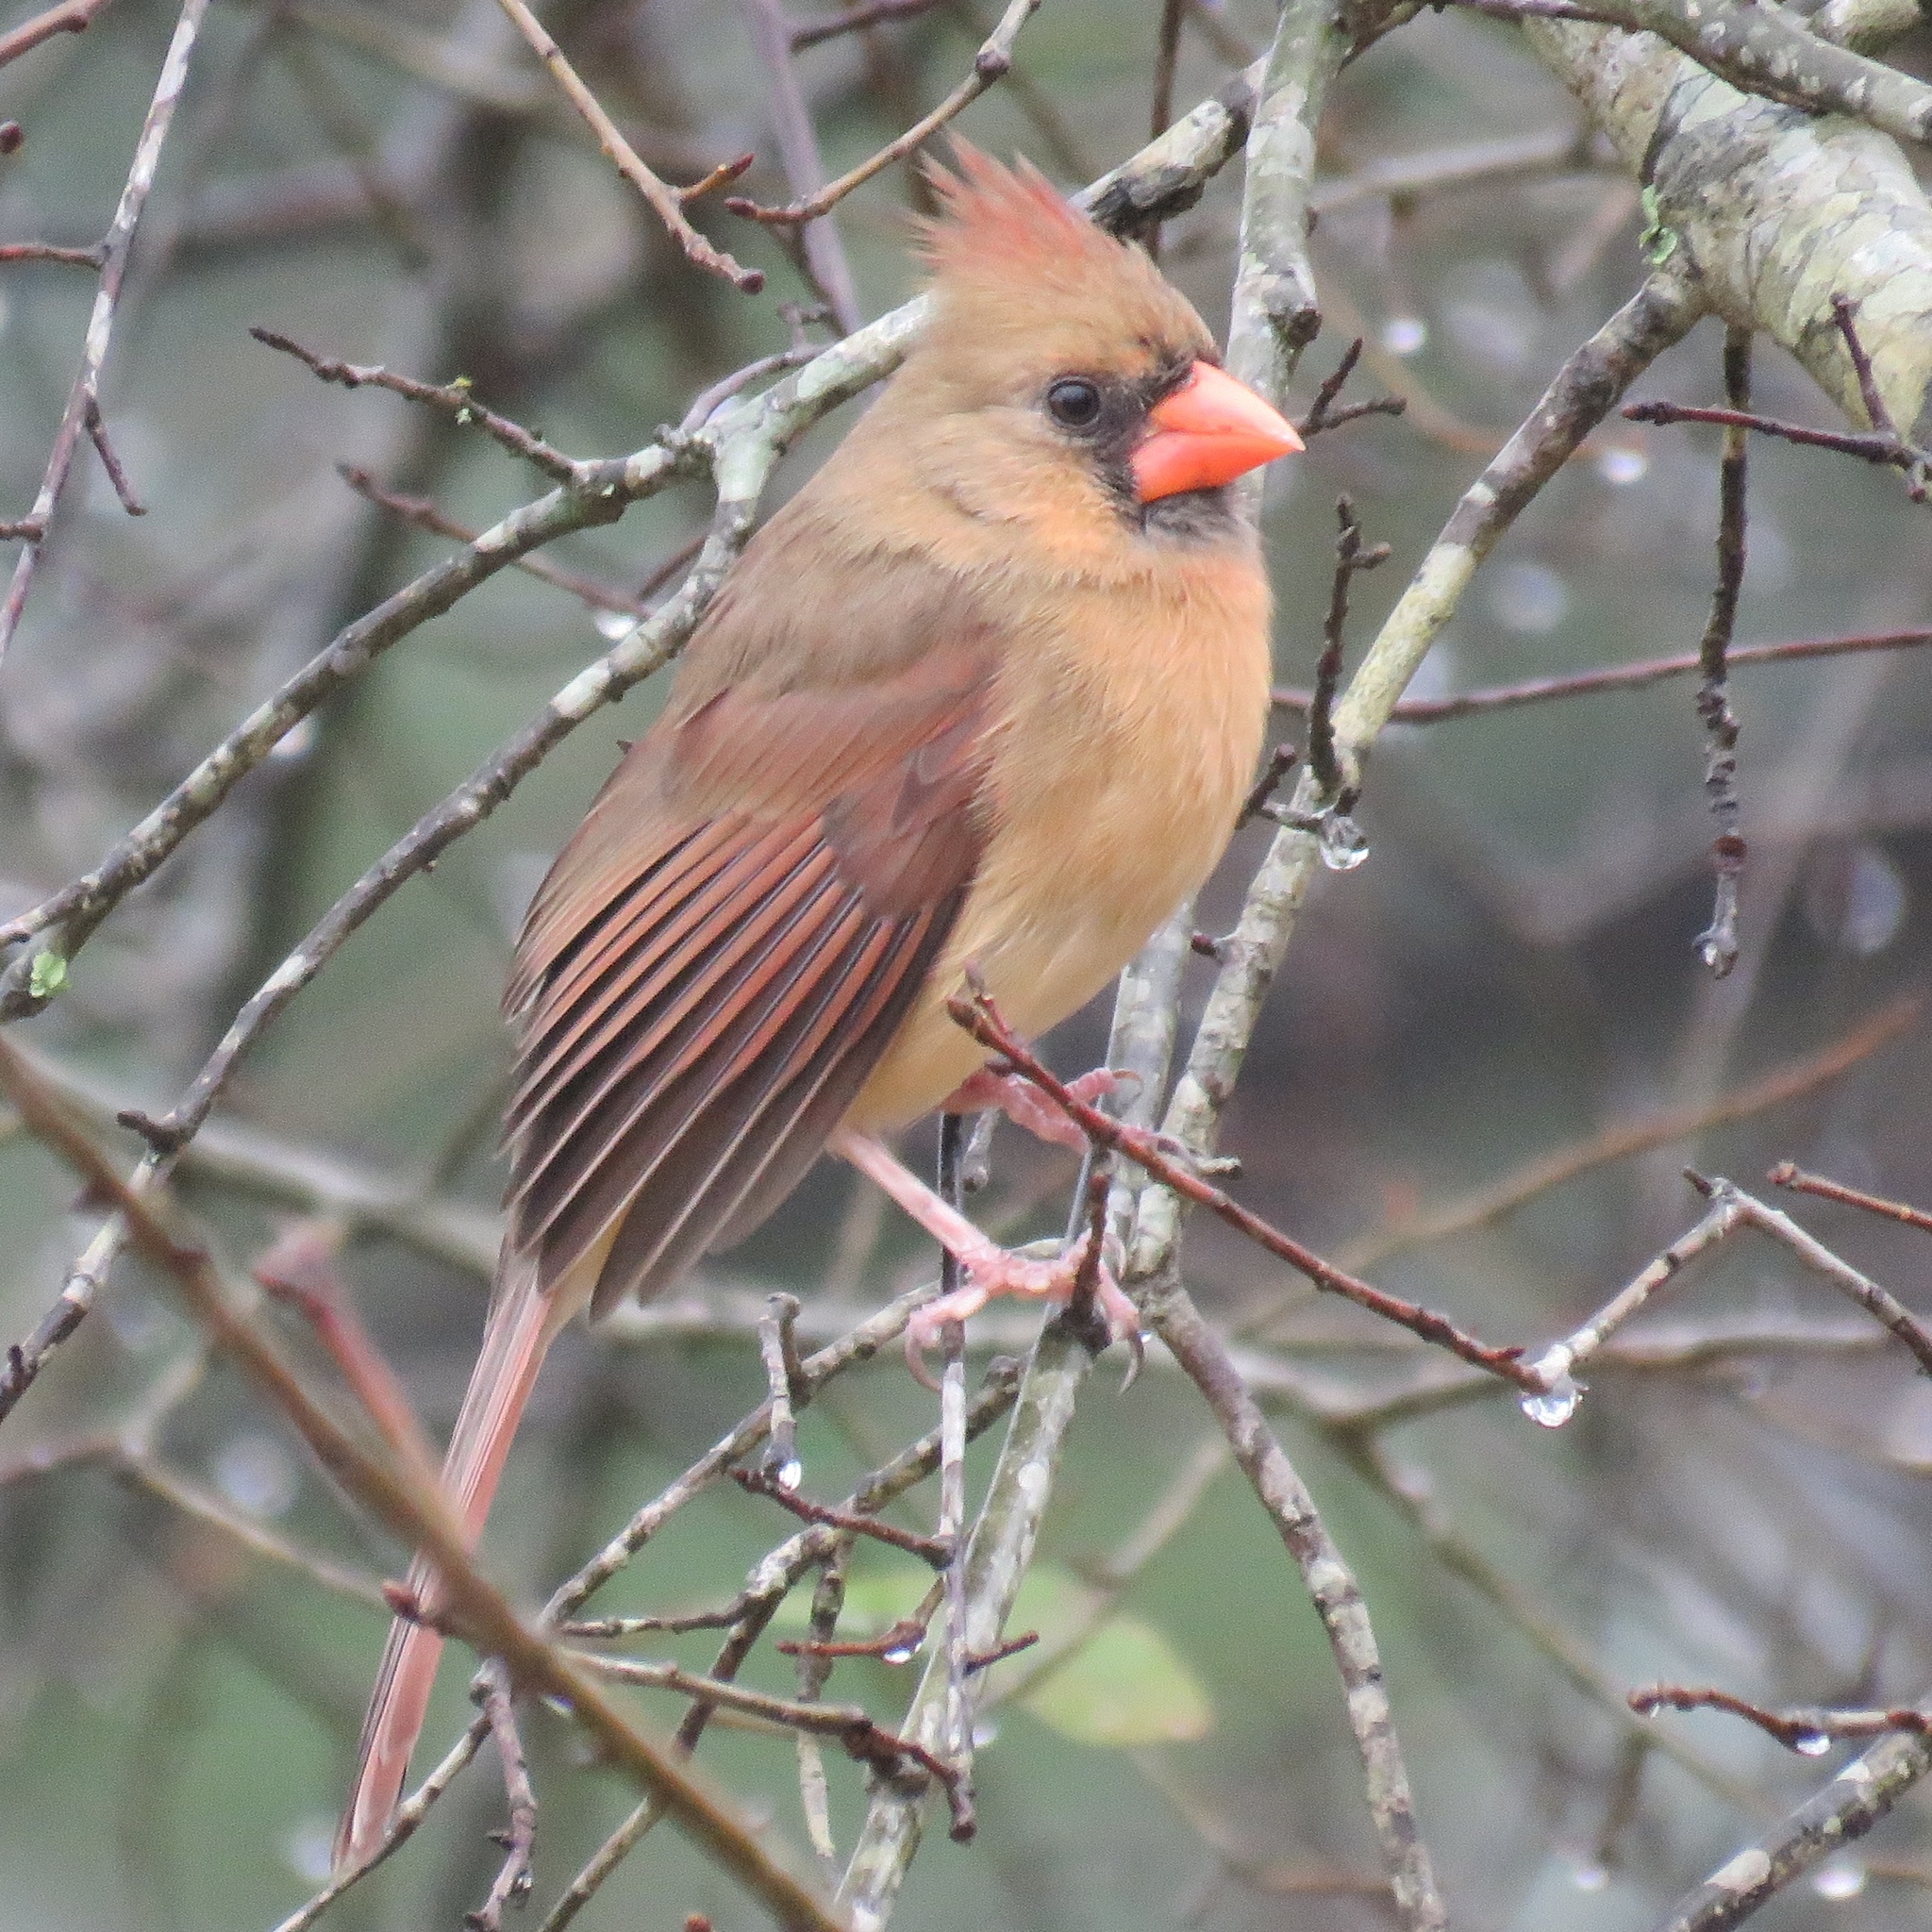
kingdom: Animalia
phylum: Chordata
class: Aves
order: Passeriformes
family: Cardinalidae
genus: Cardinalis
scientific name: Cardinalis cardinalis
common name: Northern cardinal
